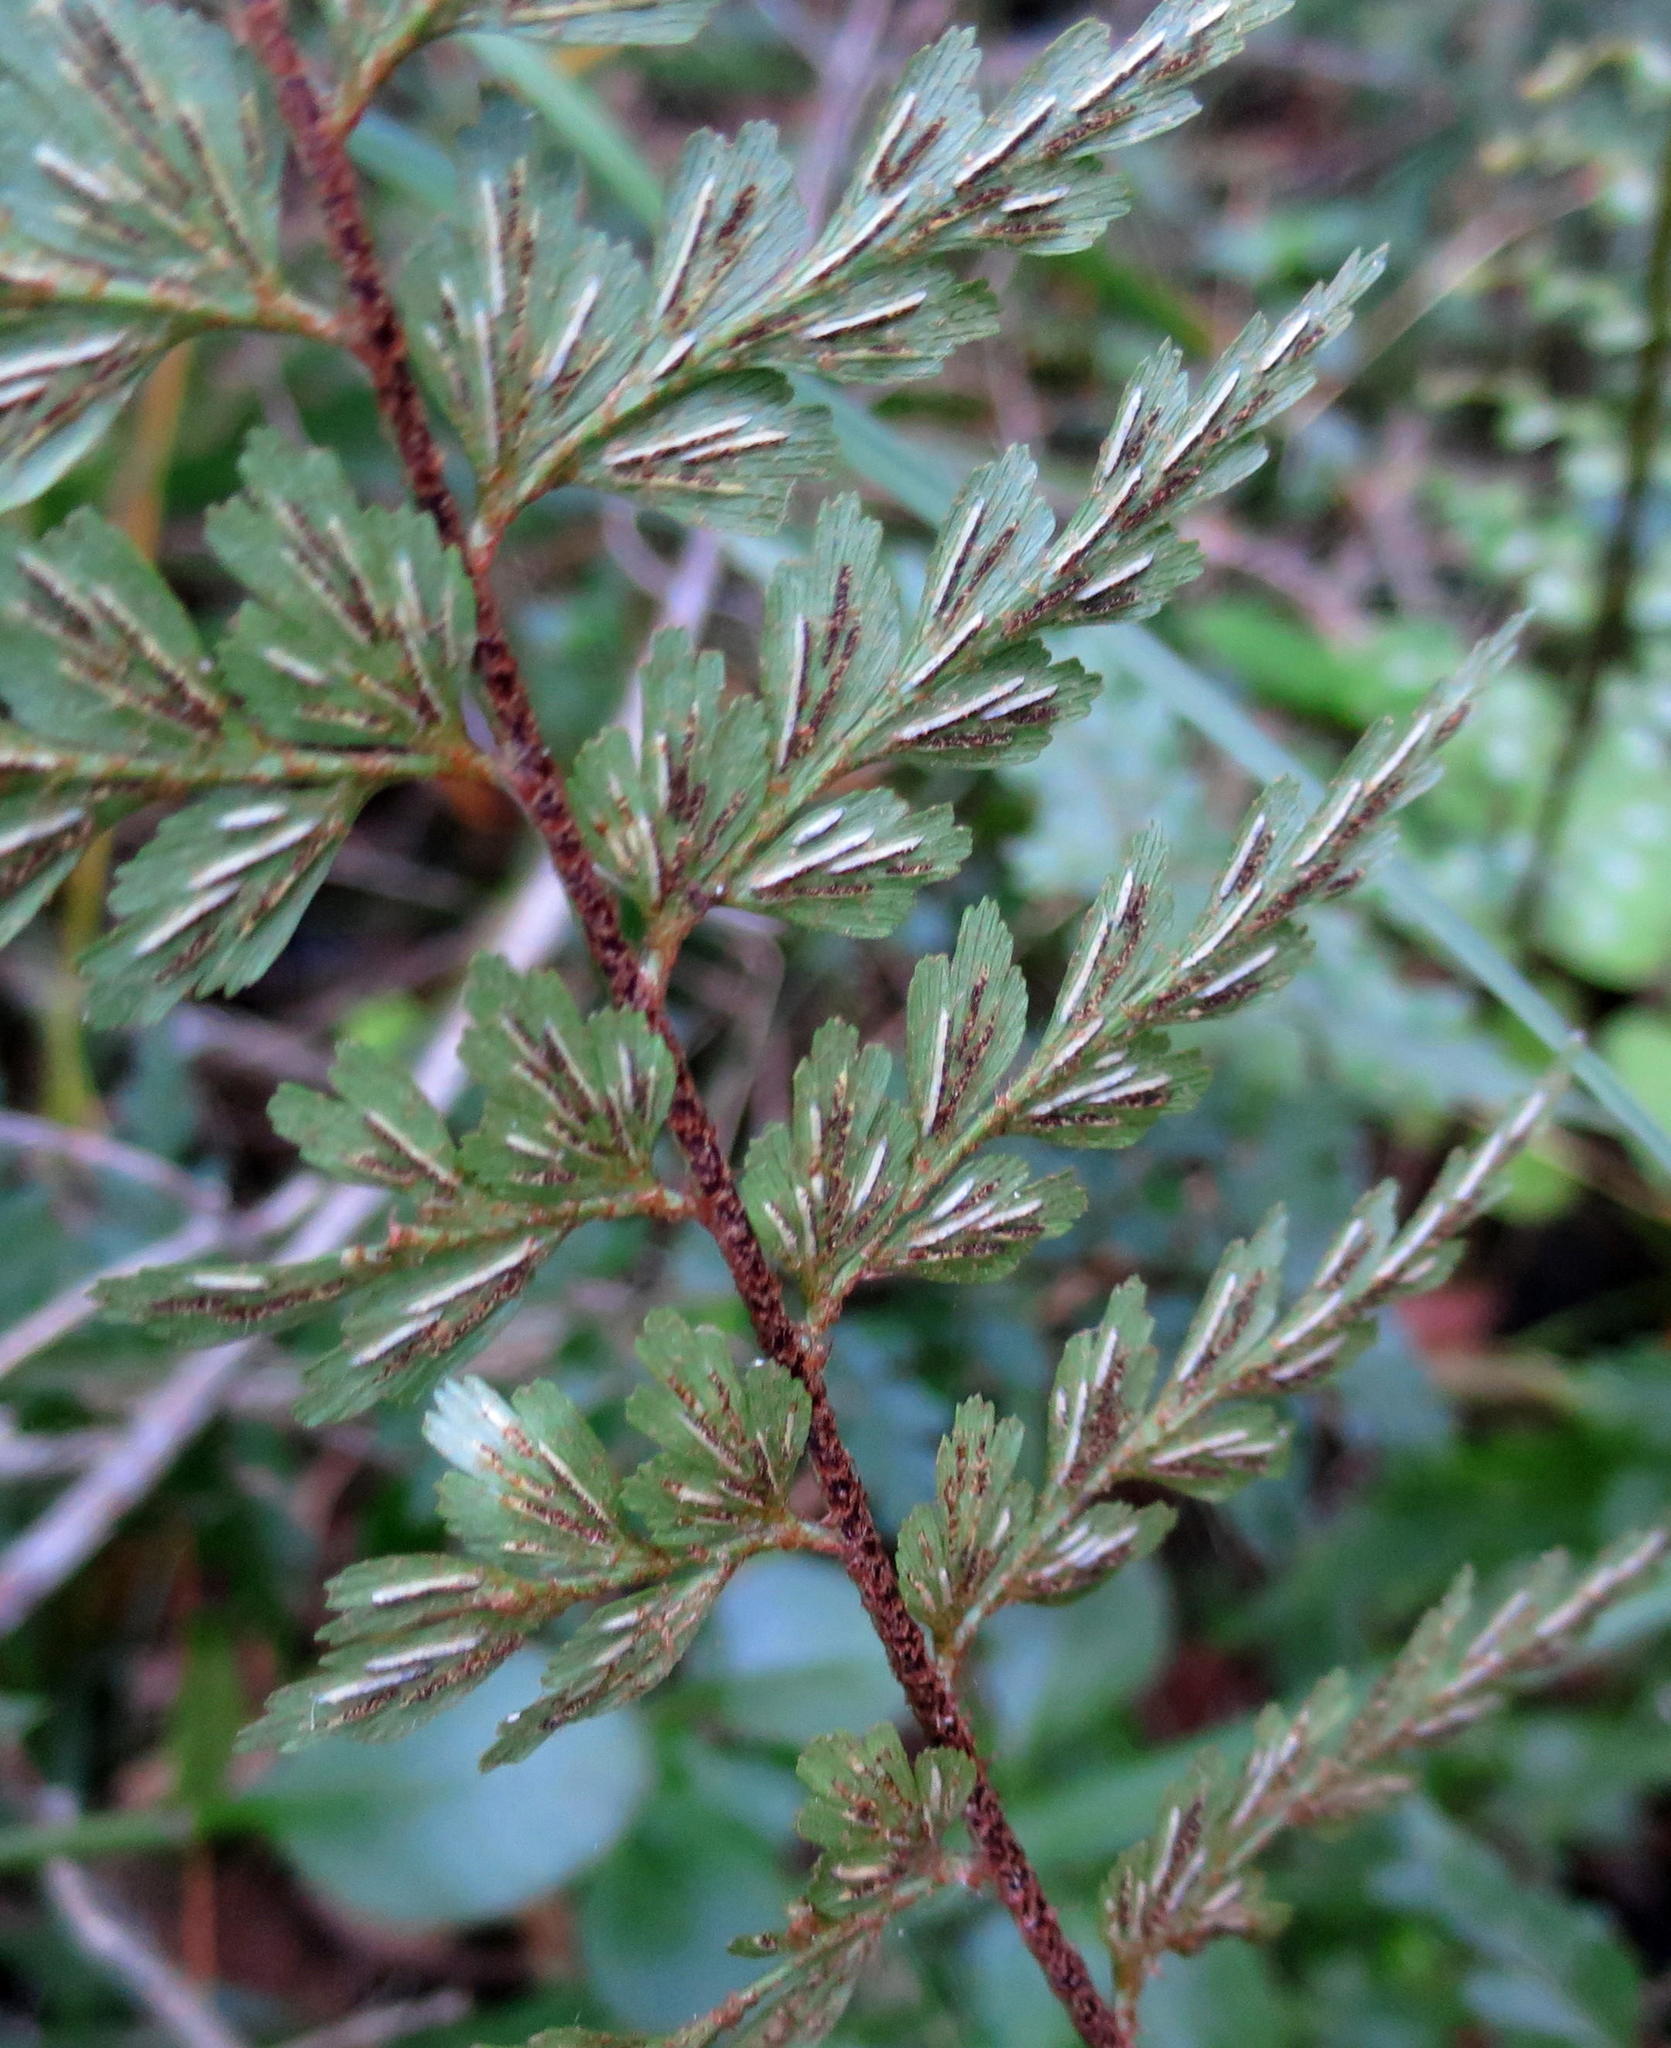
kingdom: Plantae
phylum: Tracheophyta
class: Polypodiopsida
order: Polypodiales
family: Aspleniaceae
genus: Asplenium
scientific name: Asplenium aethiopicum
